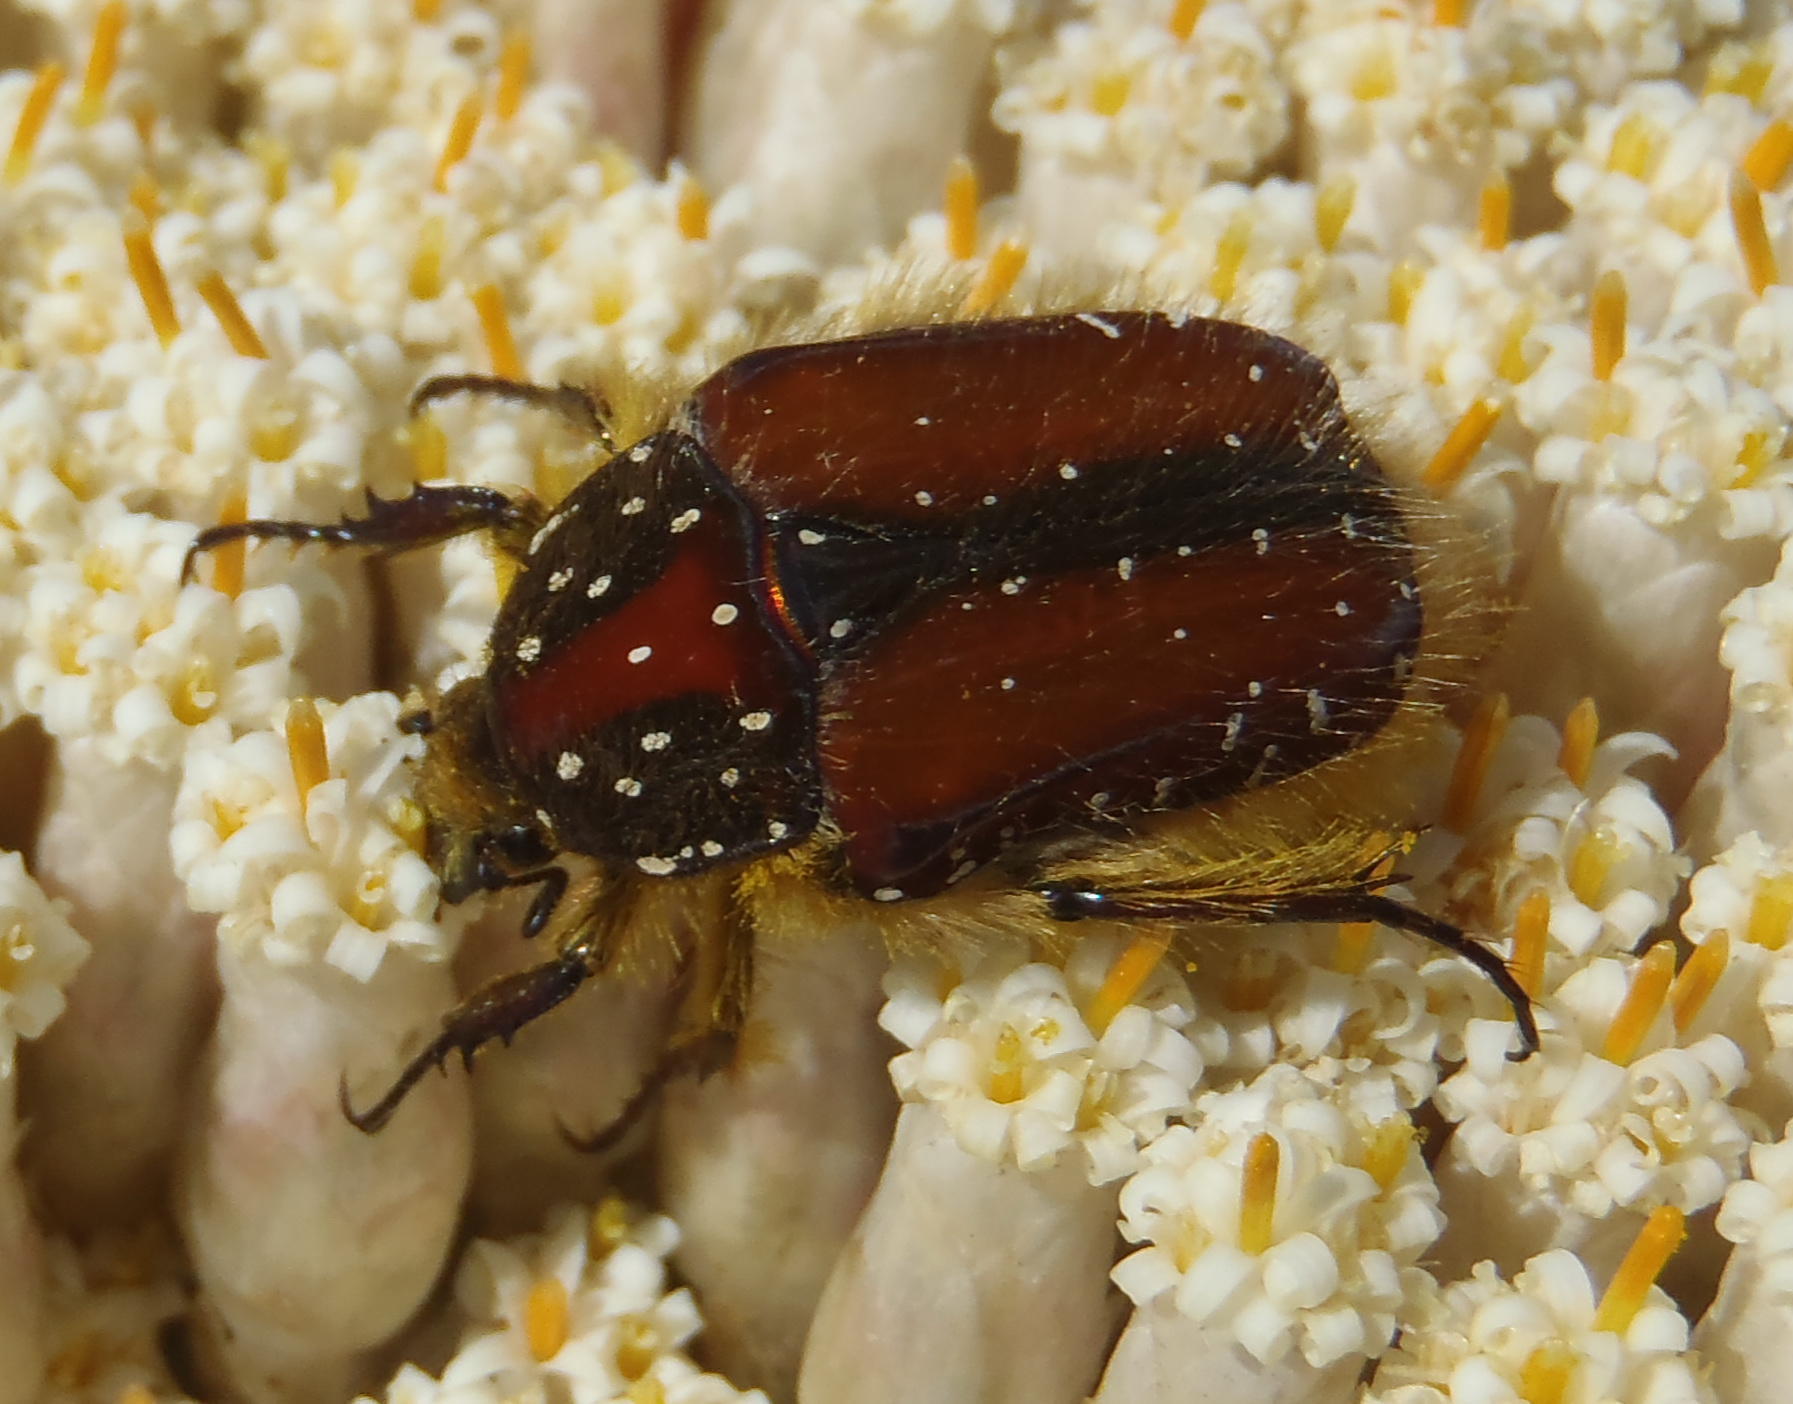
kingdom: Animalia
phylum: Arthropoda
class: Insecta
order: Coleoptera
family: Scarabaeidae
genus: Trichostetha
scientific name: Trichostetha capensis
